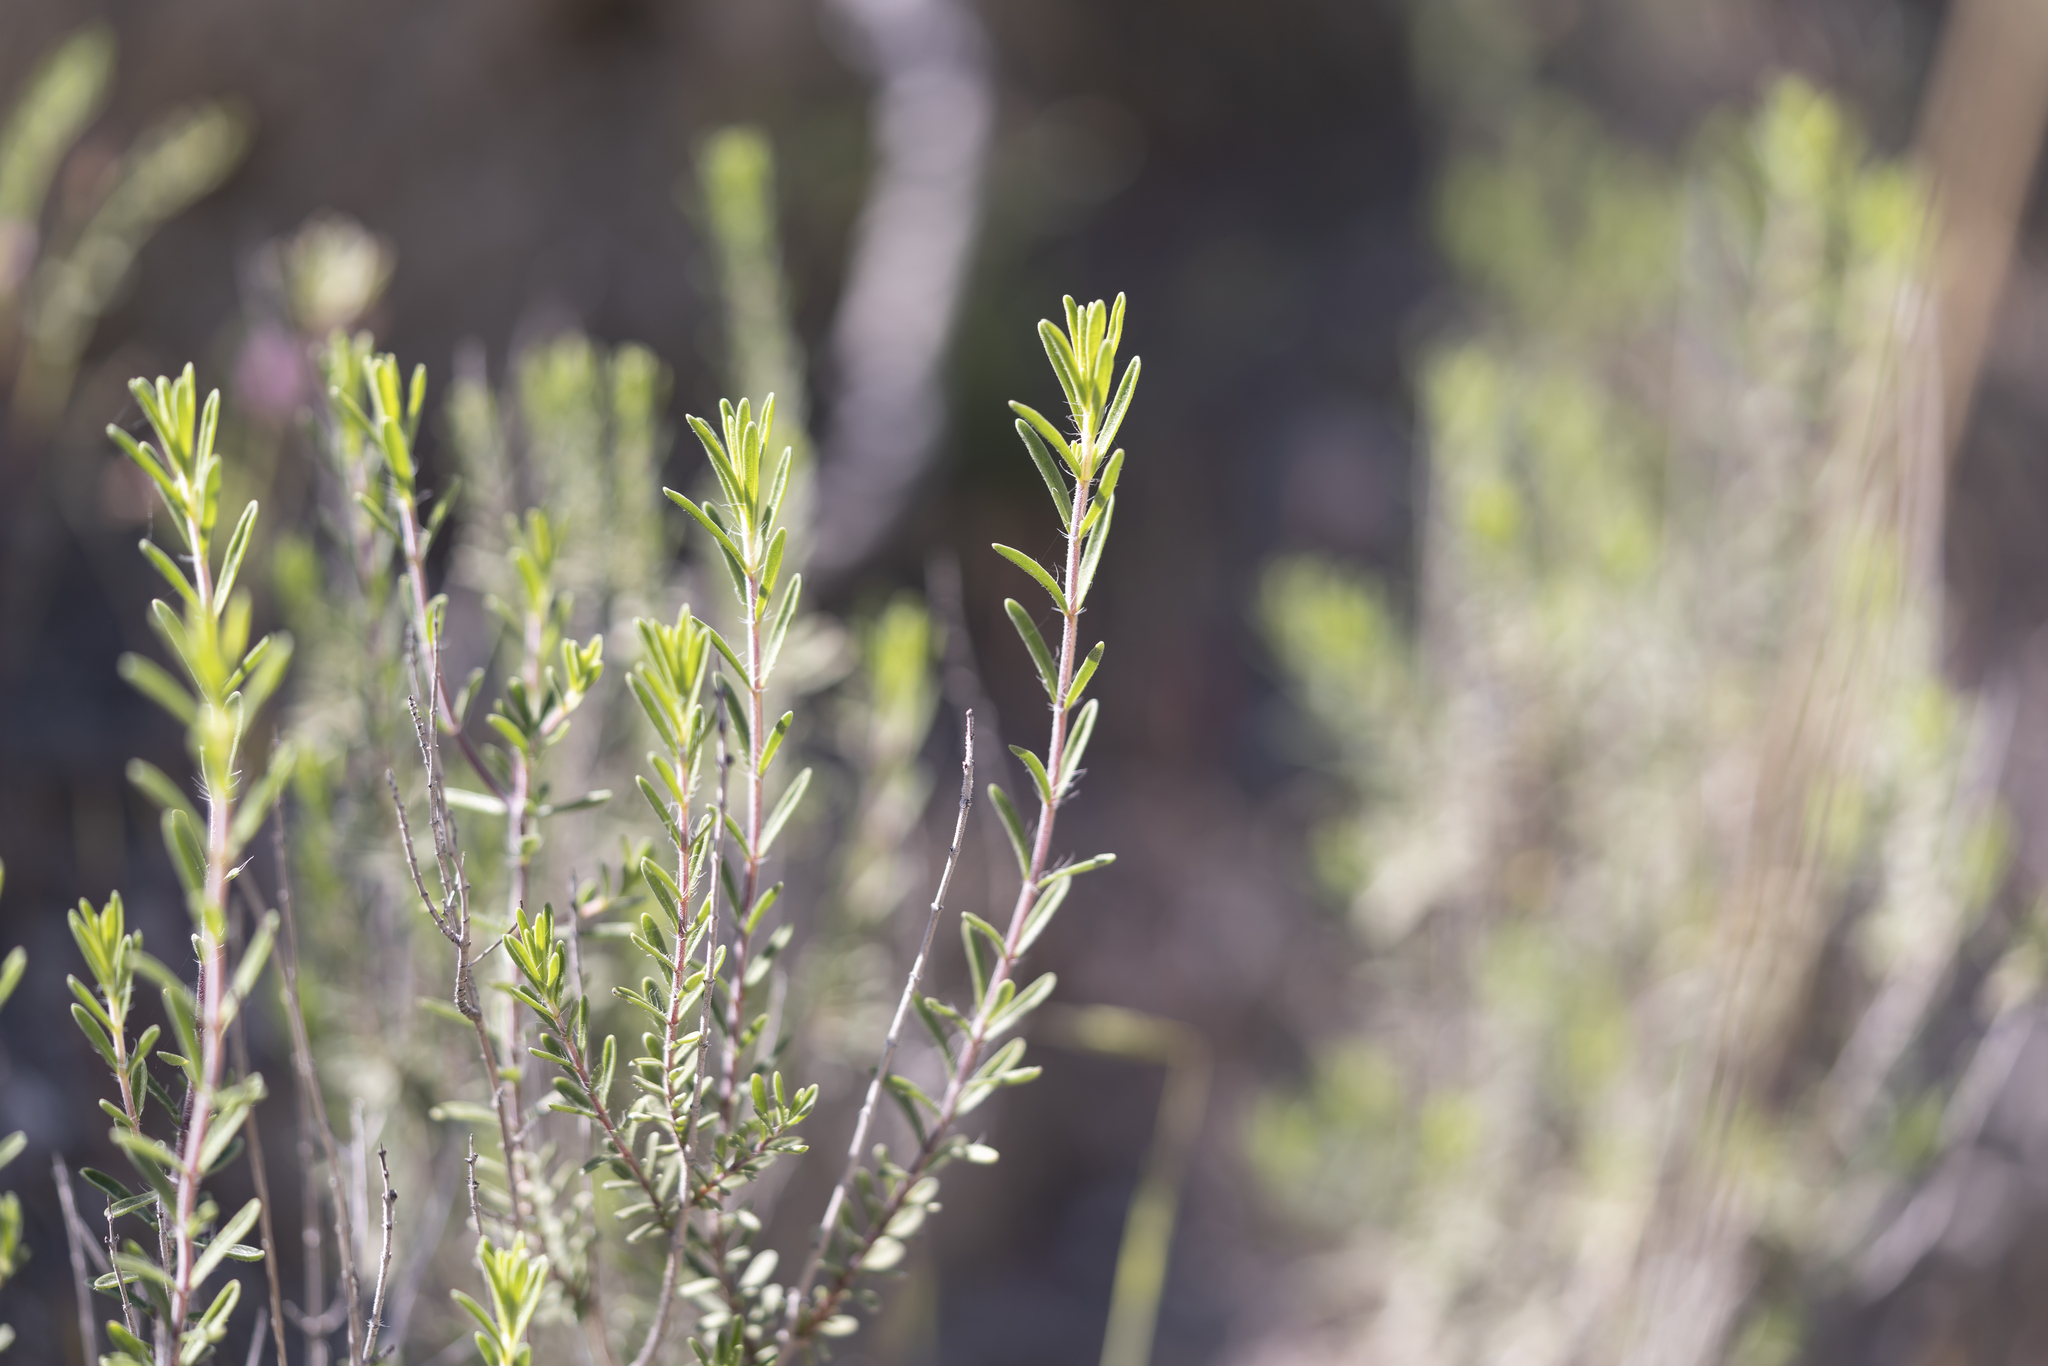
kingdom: Plantae
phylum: Tracheophyta
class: Magnoliopsida
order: Lamiales
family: Lamiaceae
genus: Thymbra
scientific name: Thymbra spicata
